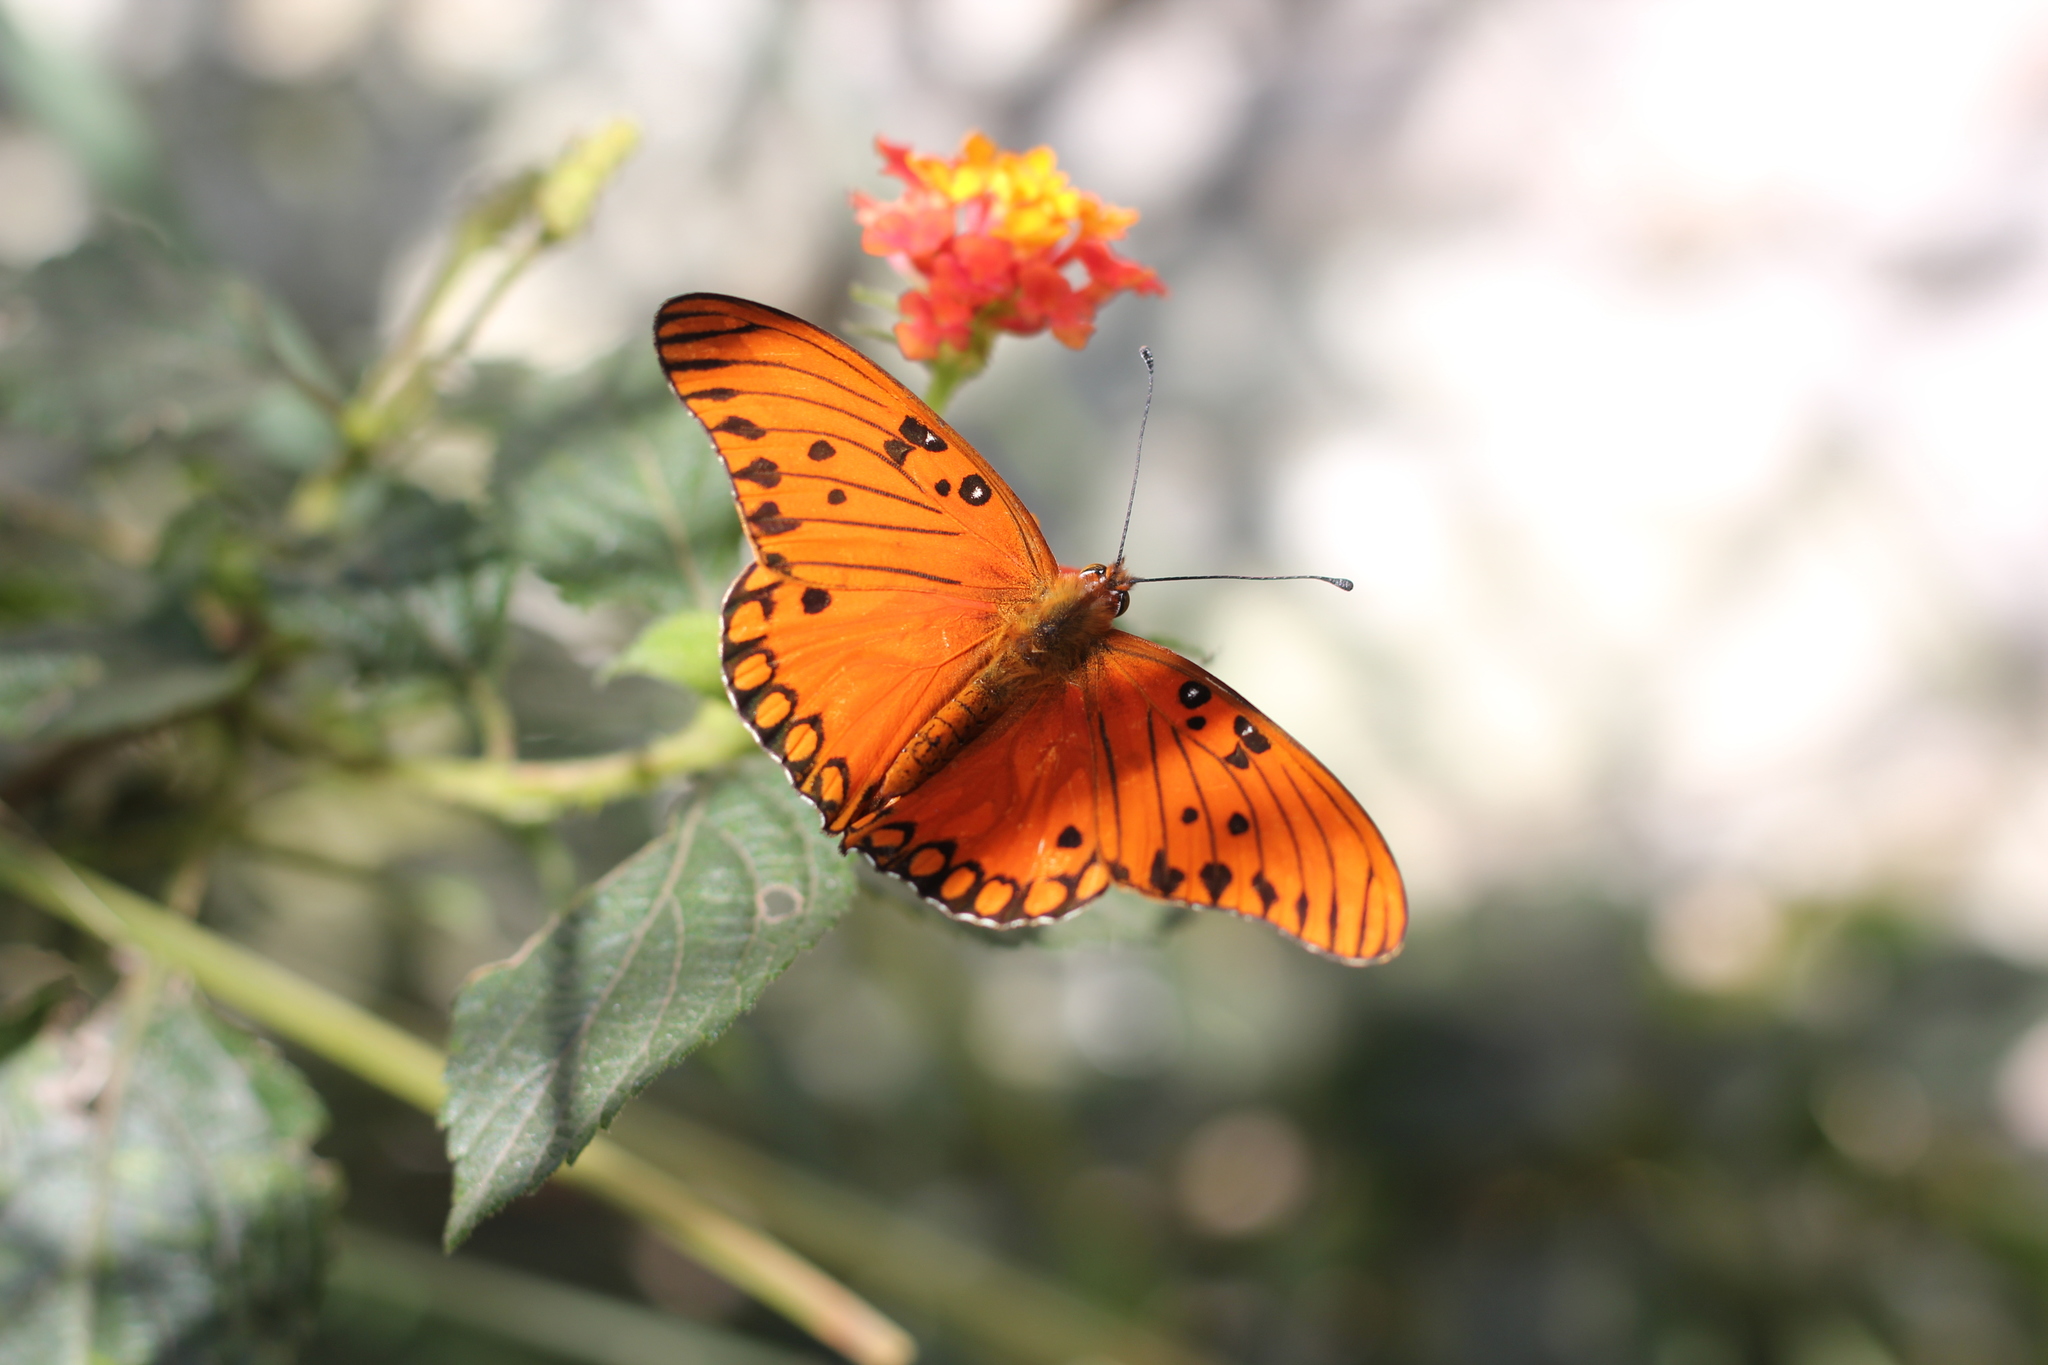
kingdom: Animalia
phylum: Arthropoda
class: Insecta
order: Lepidoptera
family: Nymphalidae
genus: Dione
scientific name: Dione vanillae
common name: Gulf fritillary
